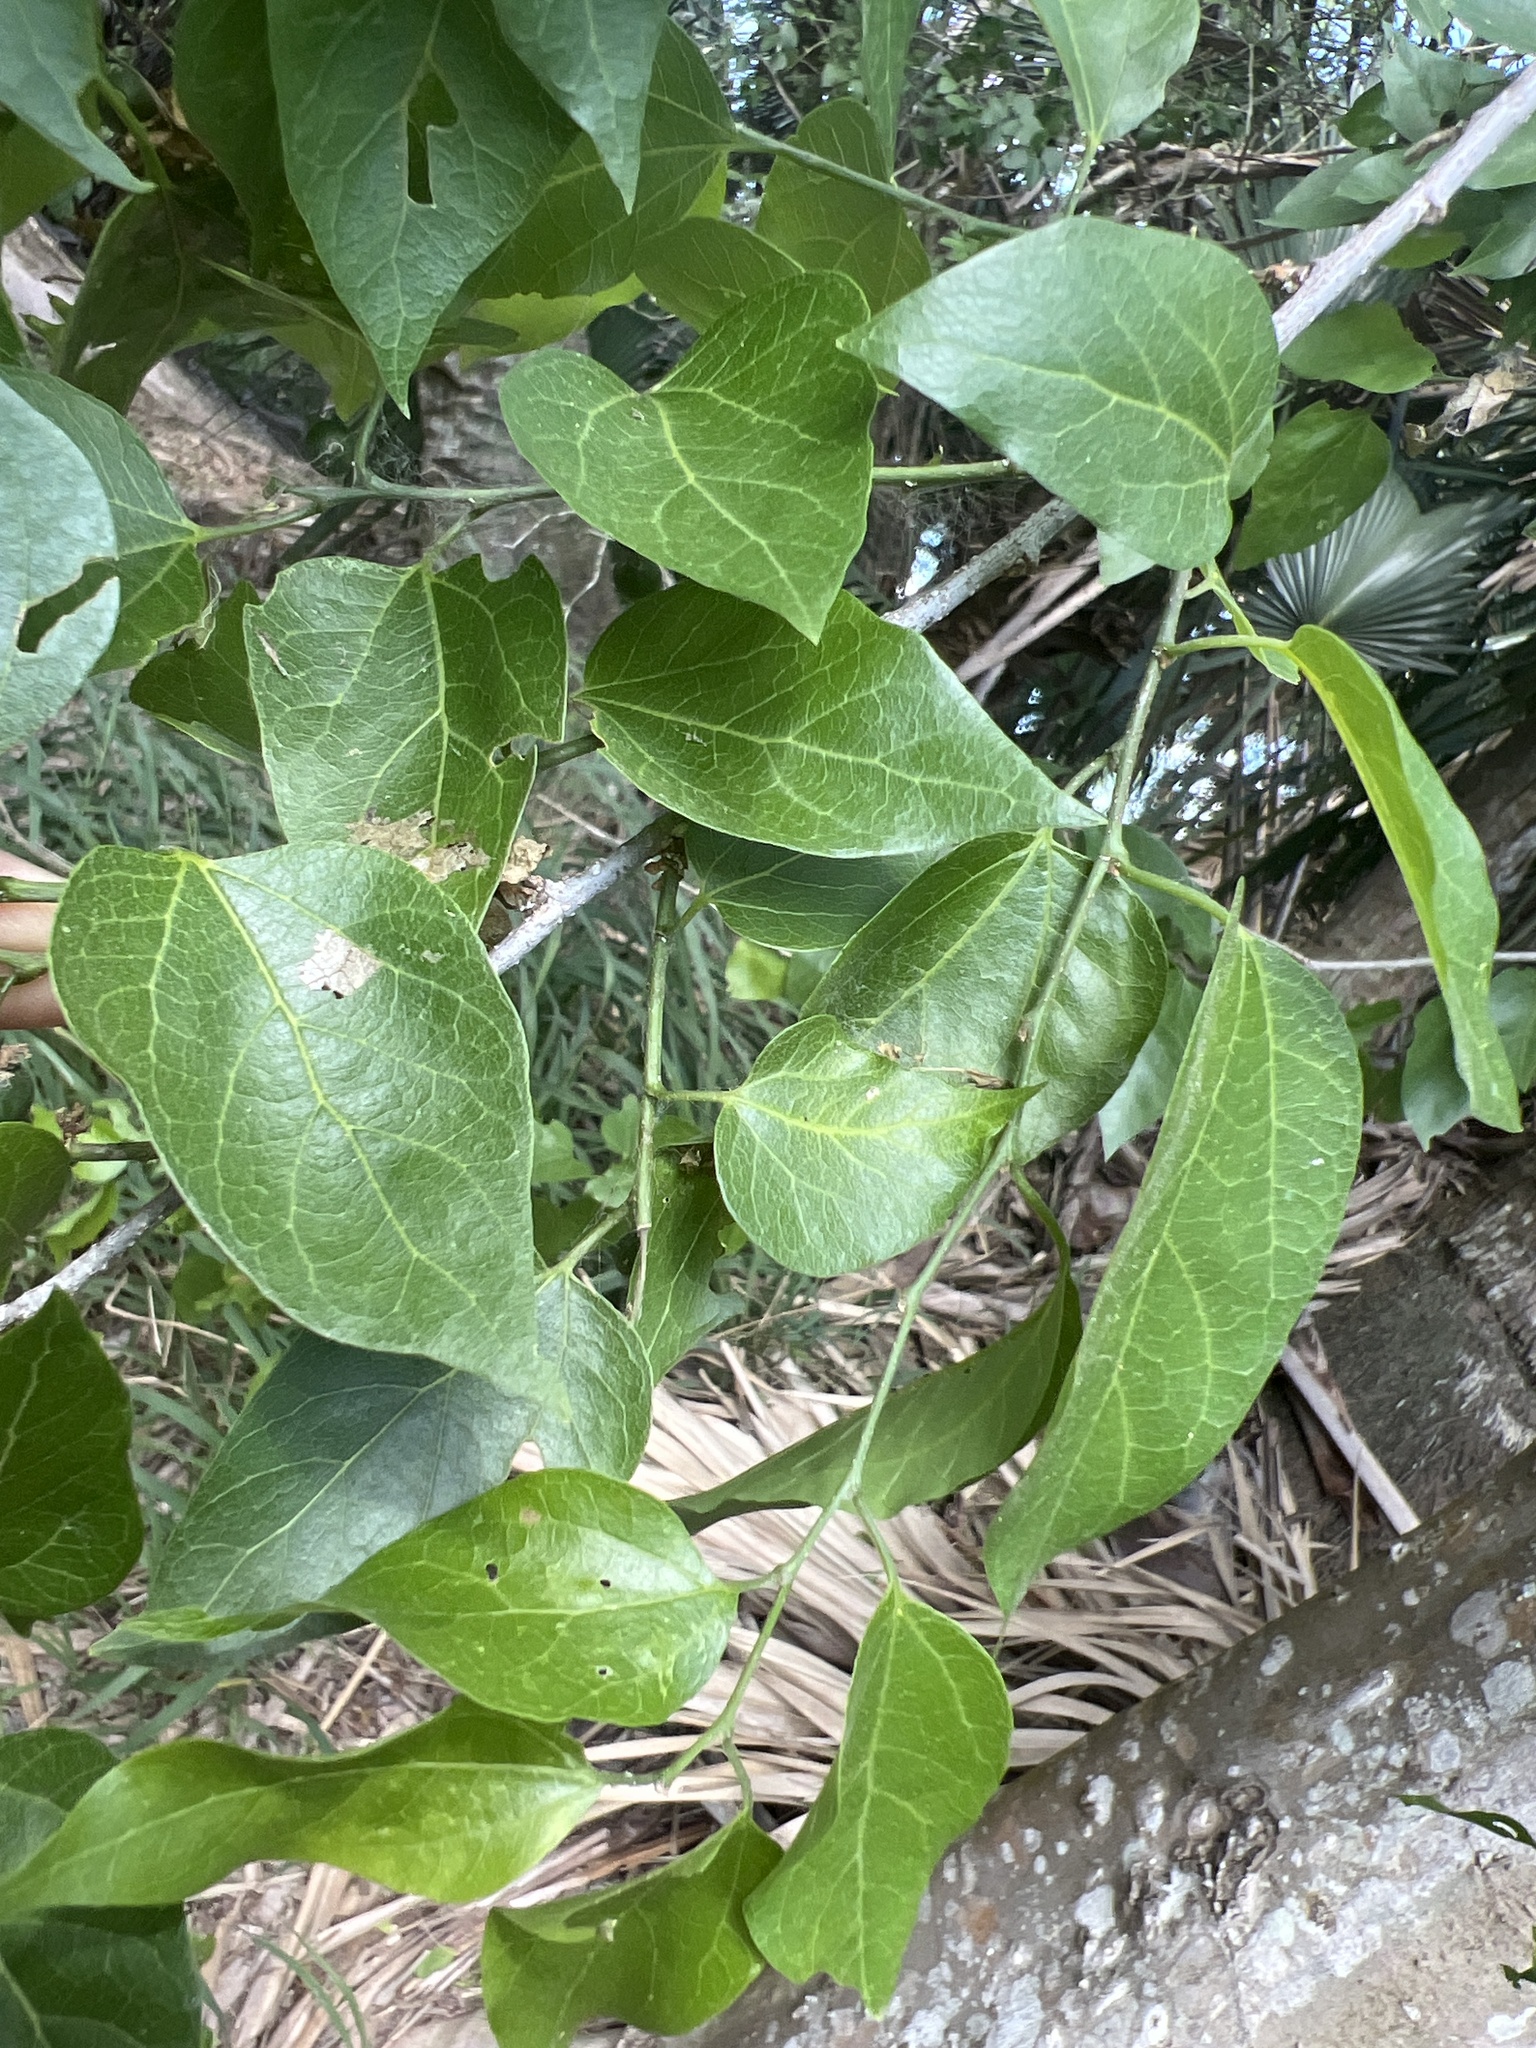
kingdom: Plantae
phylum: Tracheophyta
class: Magnoliopsida
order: Rosales
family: Cannabaceae
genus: Celtis
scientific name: Celtis laevigata
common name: Sugarberry
